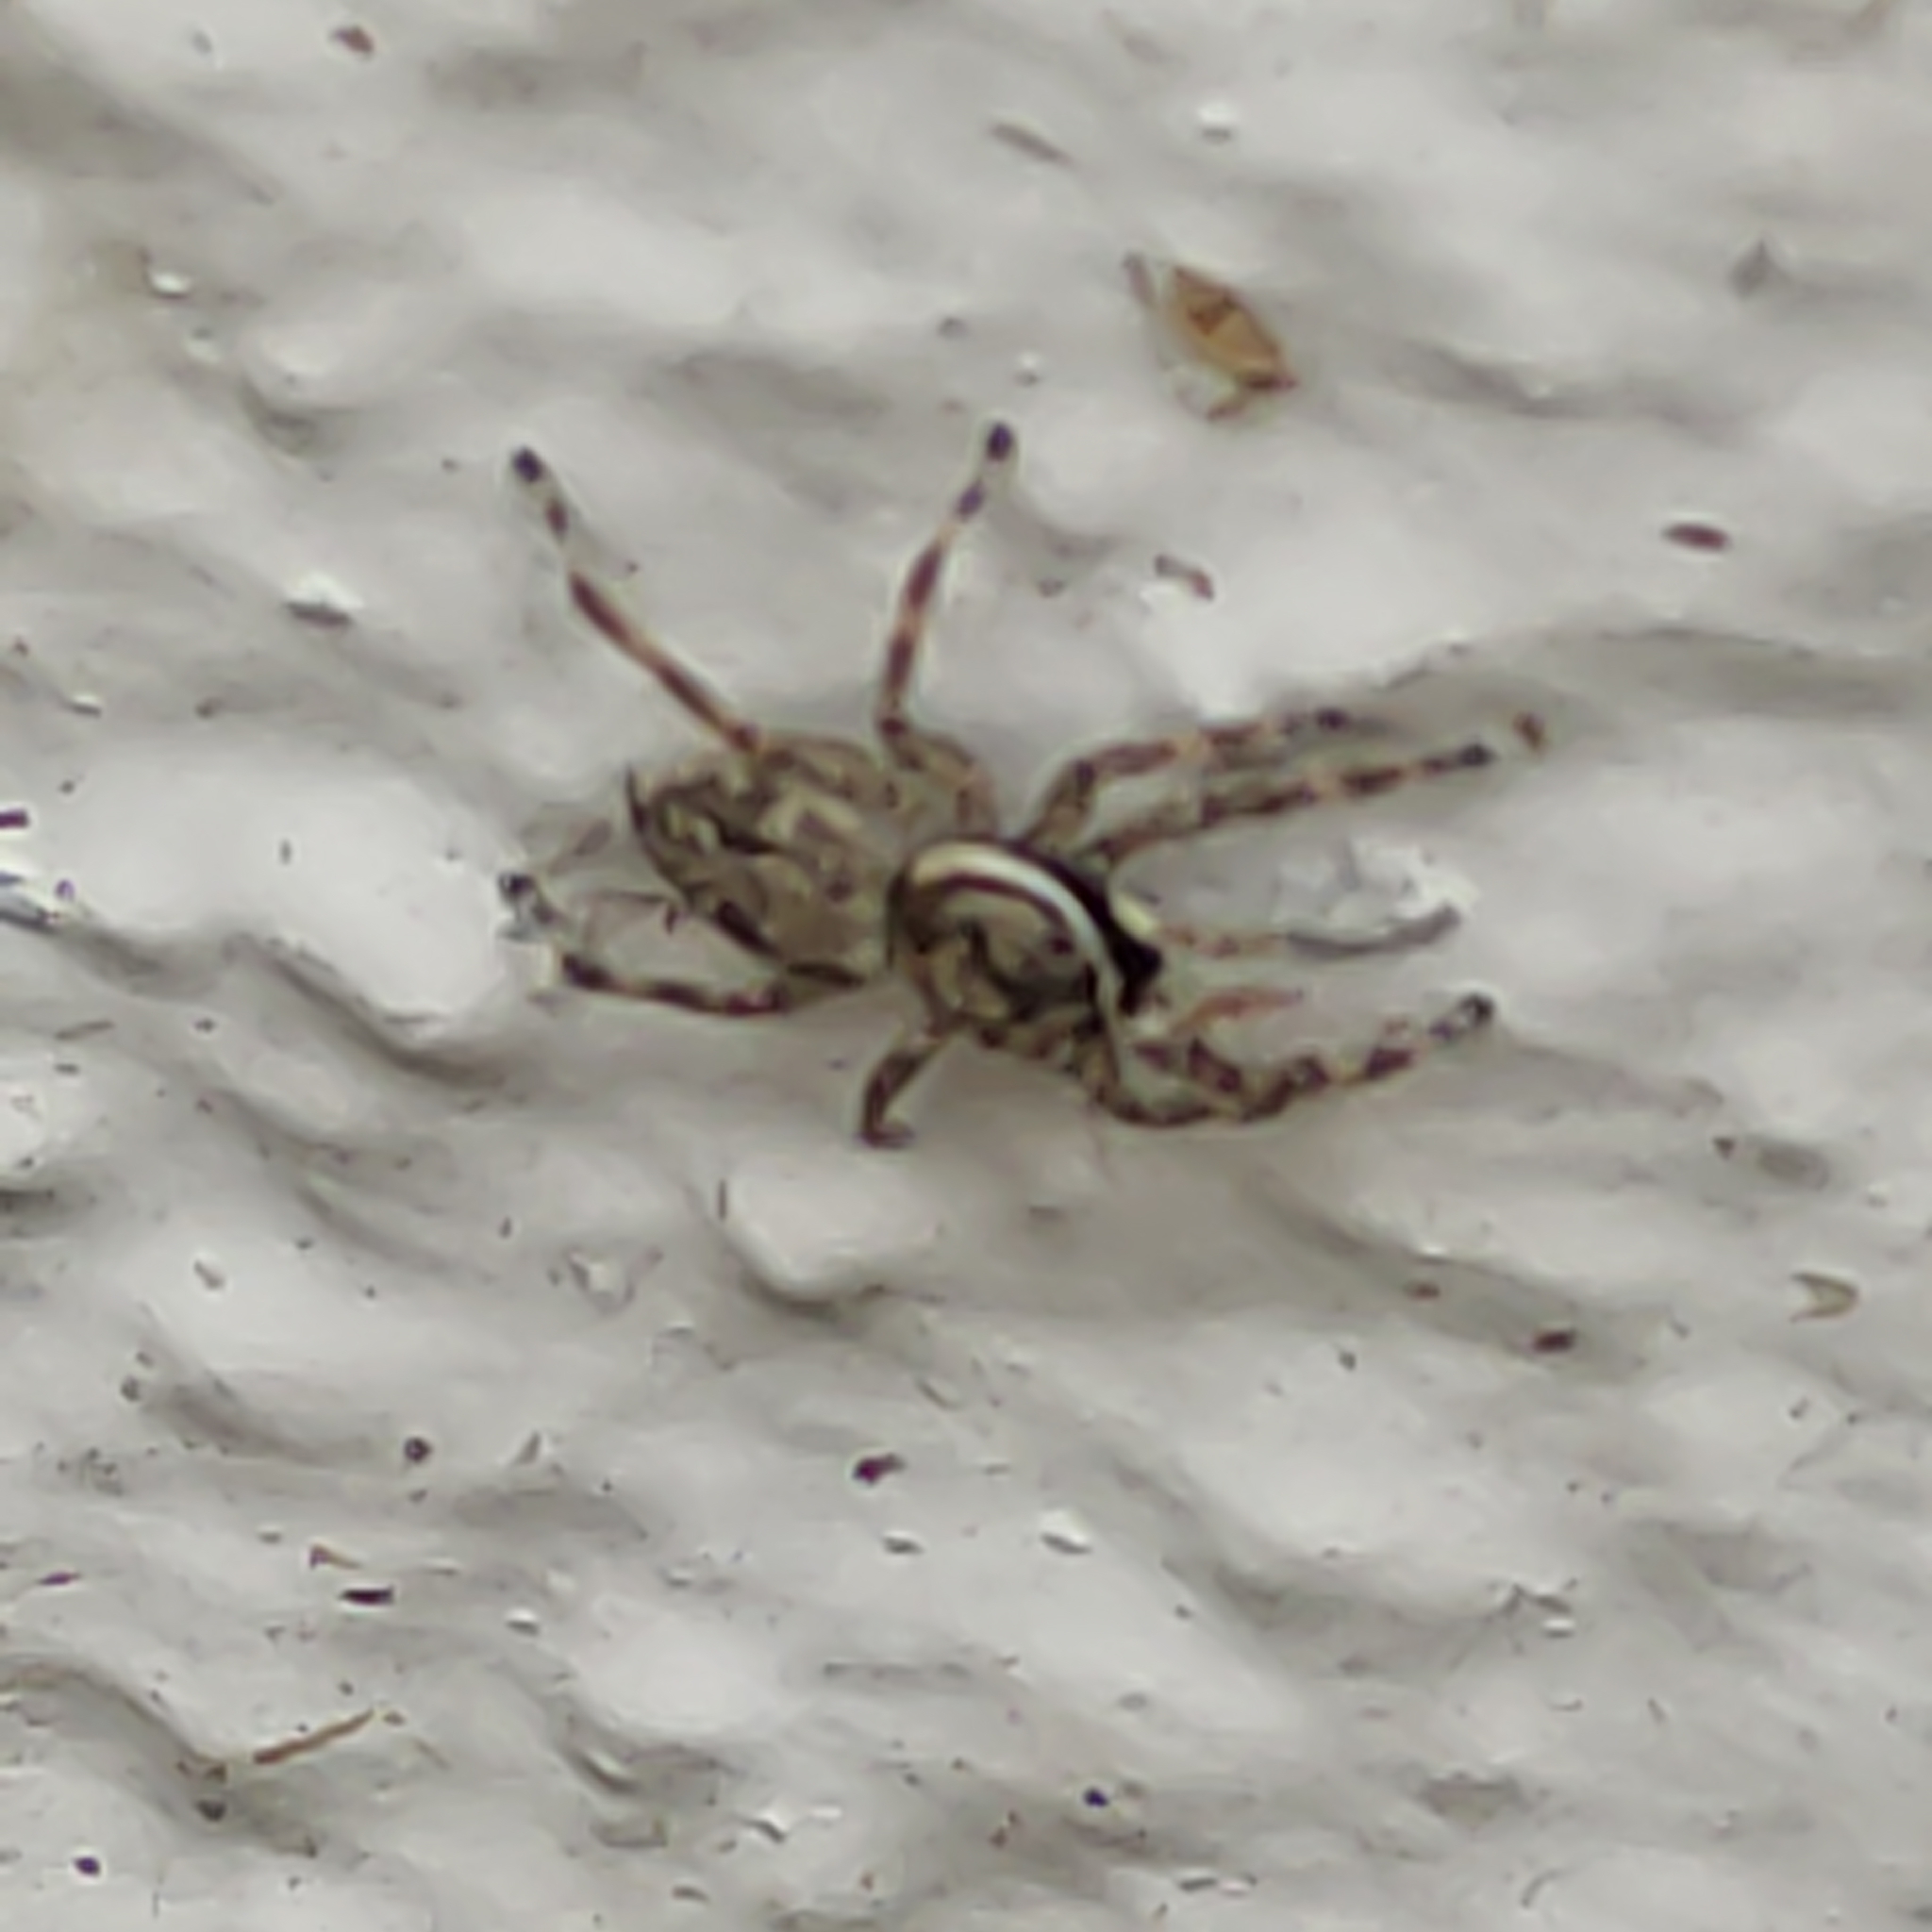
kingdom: Animalia
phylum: Arthropoda
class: Arachnida
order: Araneae
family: Salticidae
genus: Menemerus
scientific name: Menemerus nigli
